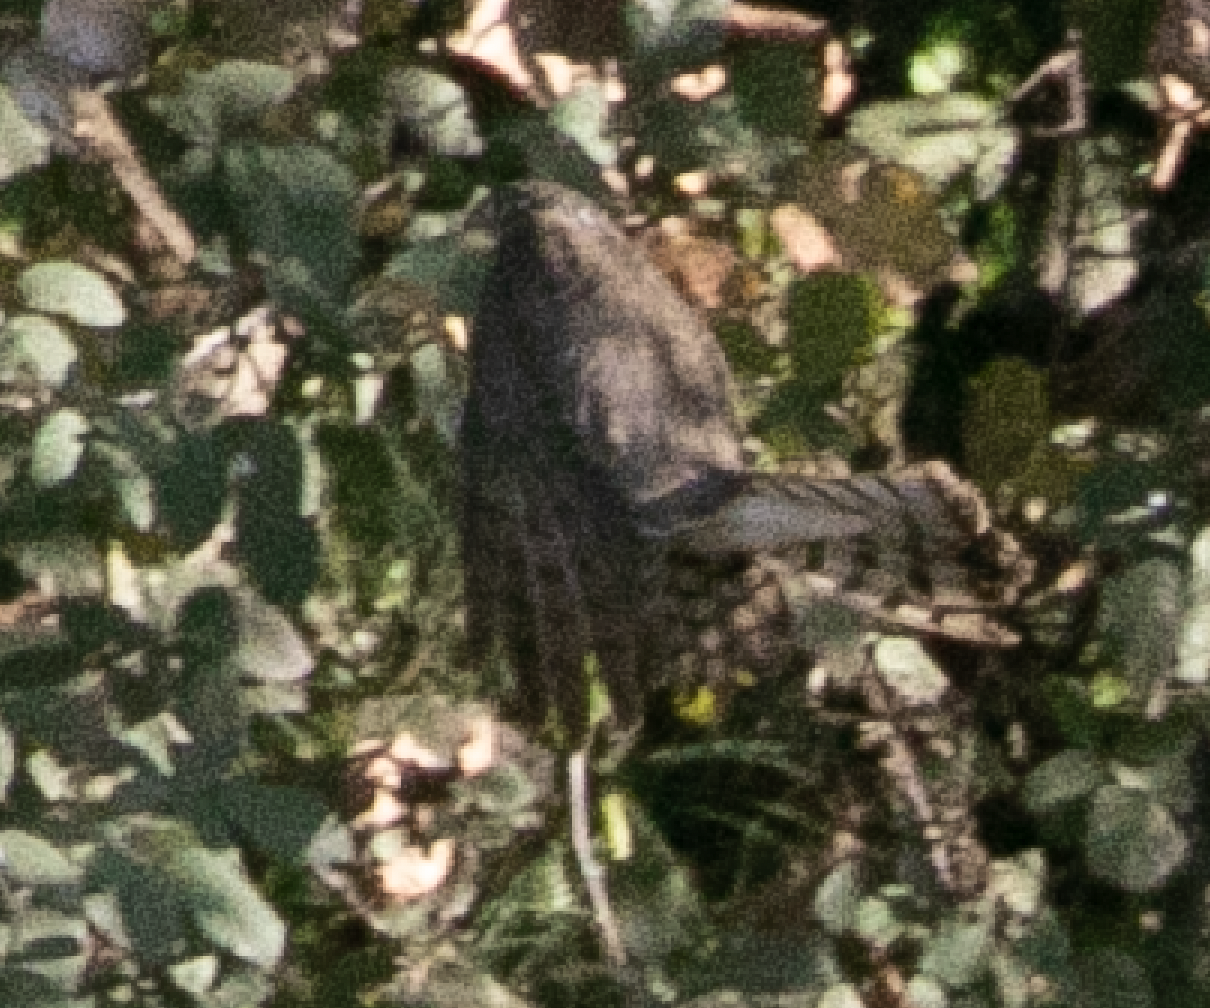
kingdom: Animalia
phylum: Chordata
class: Aves
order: Accipitriformes
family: Accipitridae
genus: Accipiter
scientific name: Accipiter nisus
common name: Eurasian sparrowhawk
